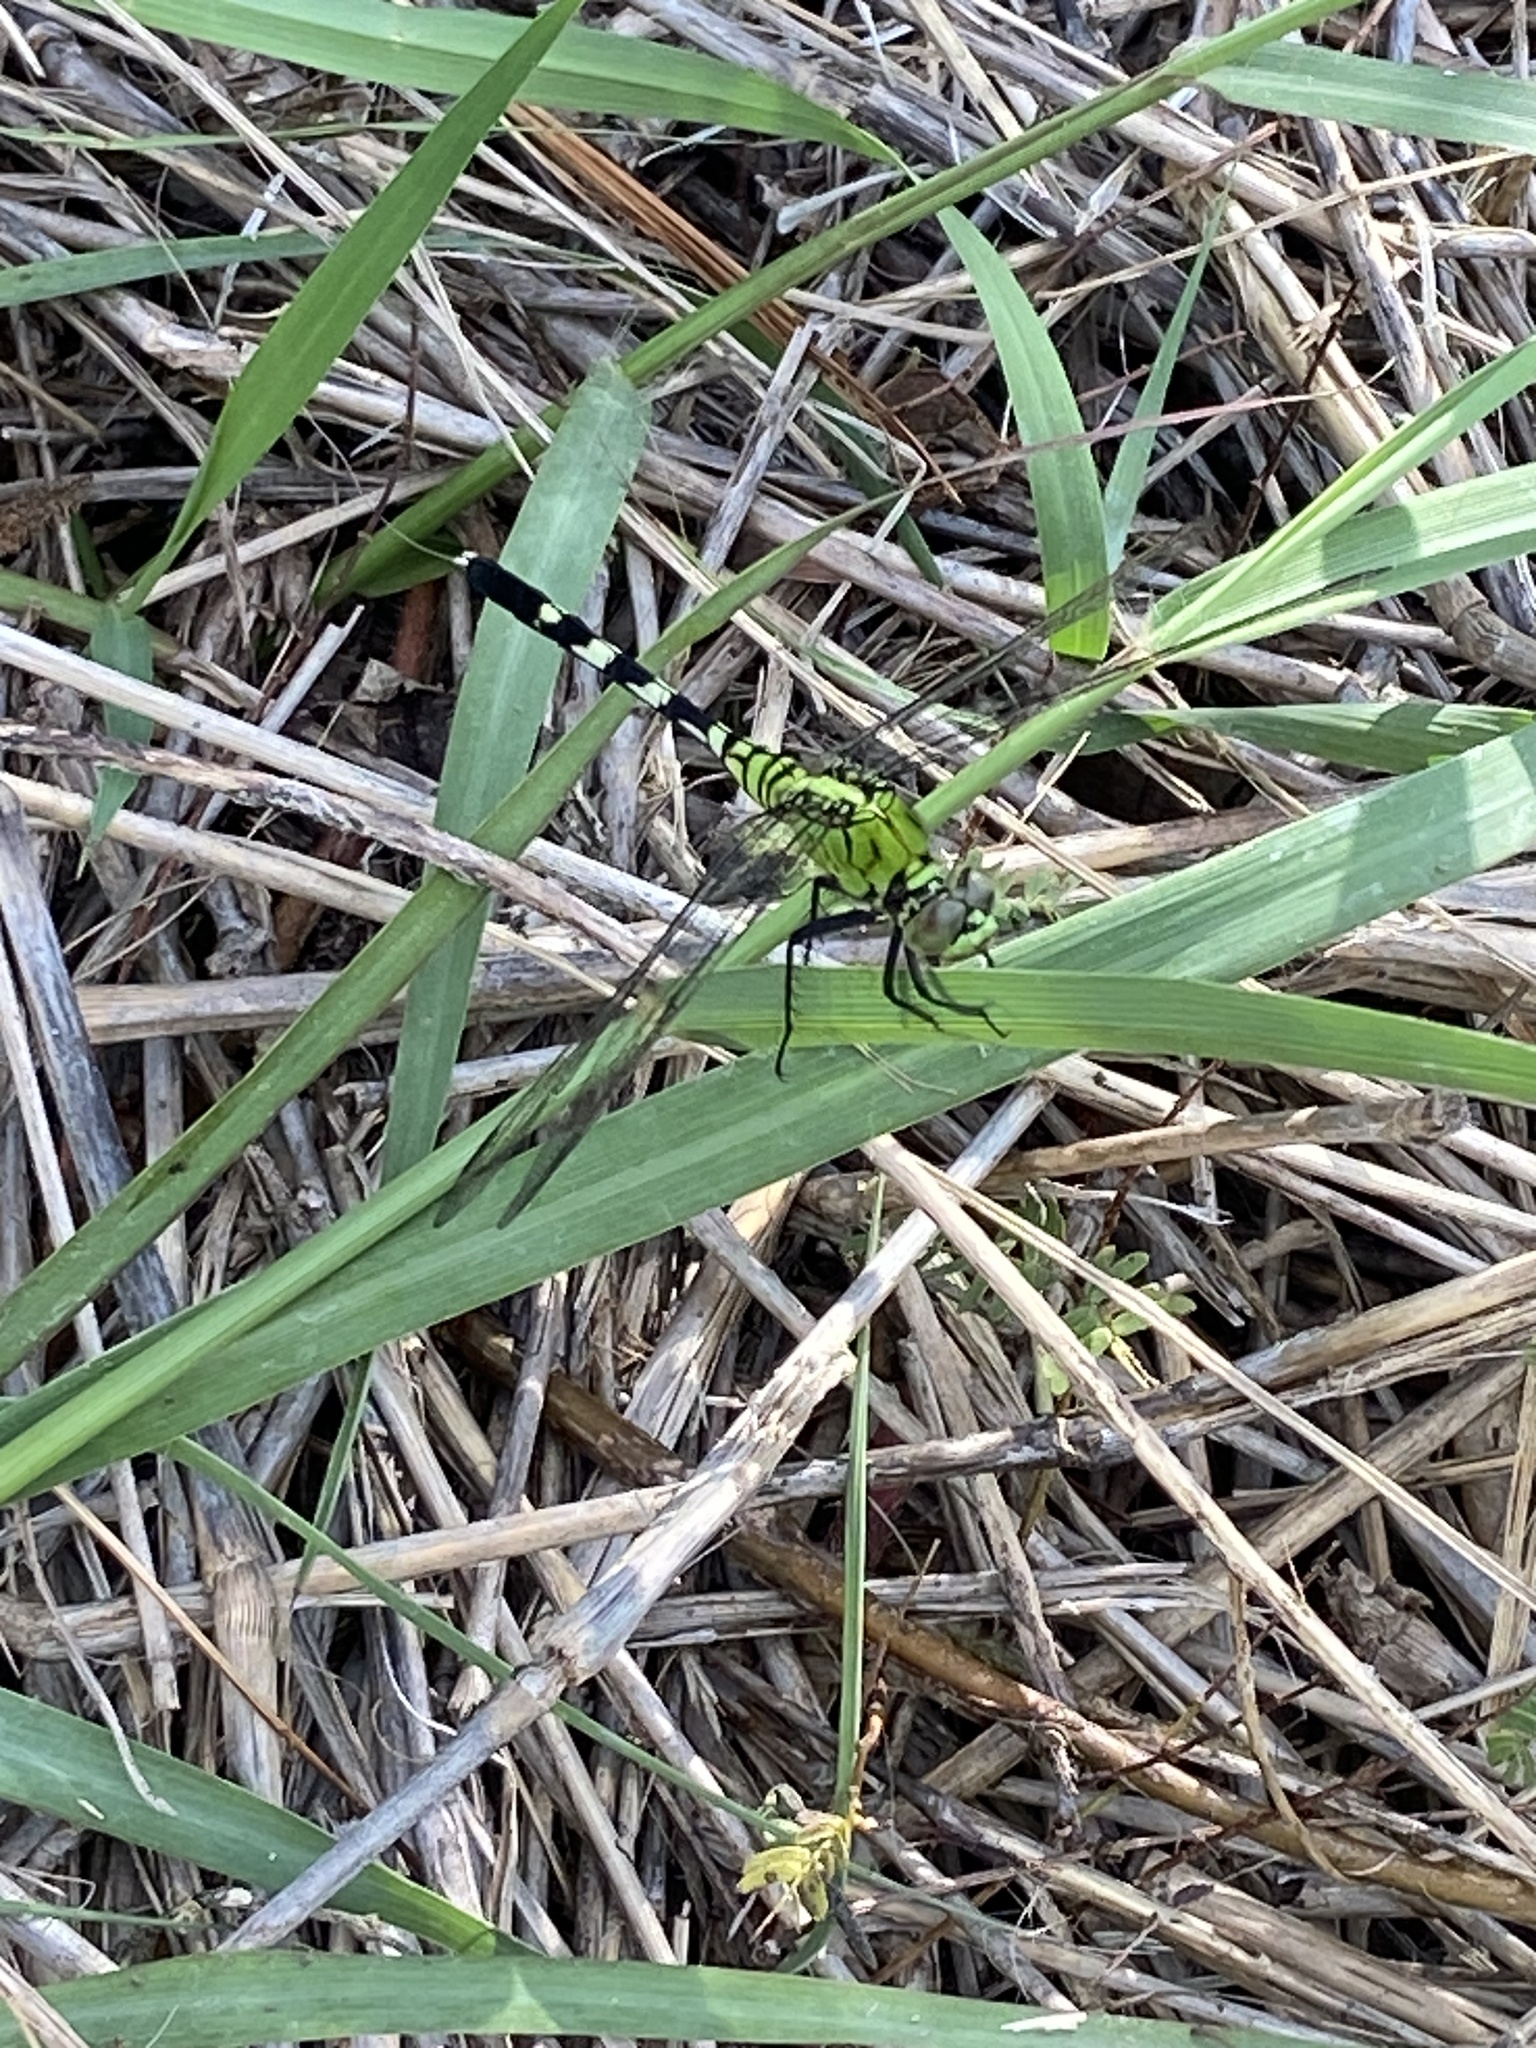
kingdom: Animalia
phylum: Arthropoda
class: Insecta
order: Odonata
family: Libellulidae
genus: Erythemis
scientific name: Erythemis simplicicollis
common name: Eastern pondhawk
